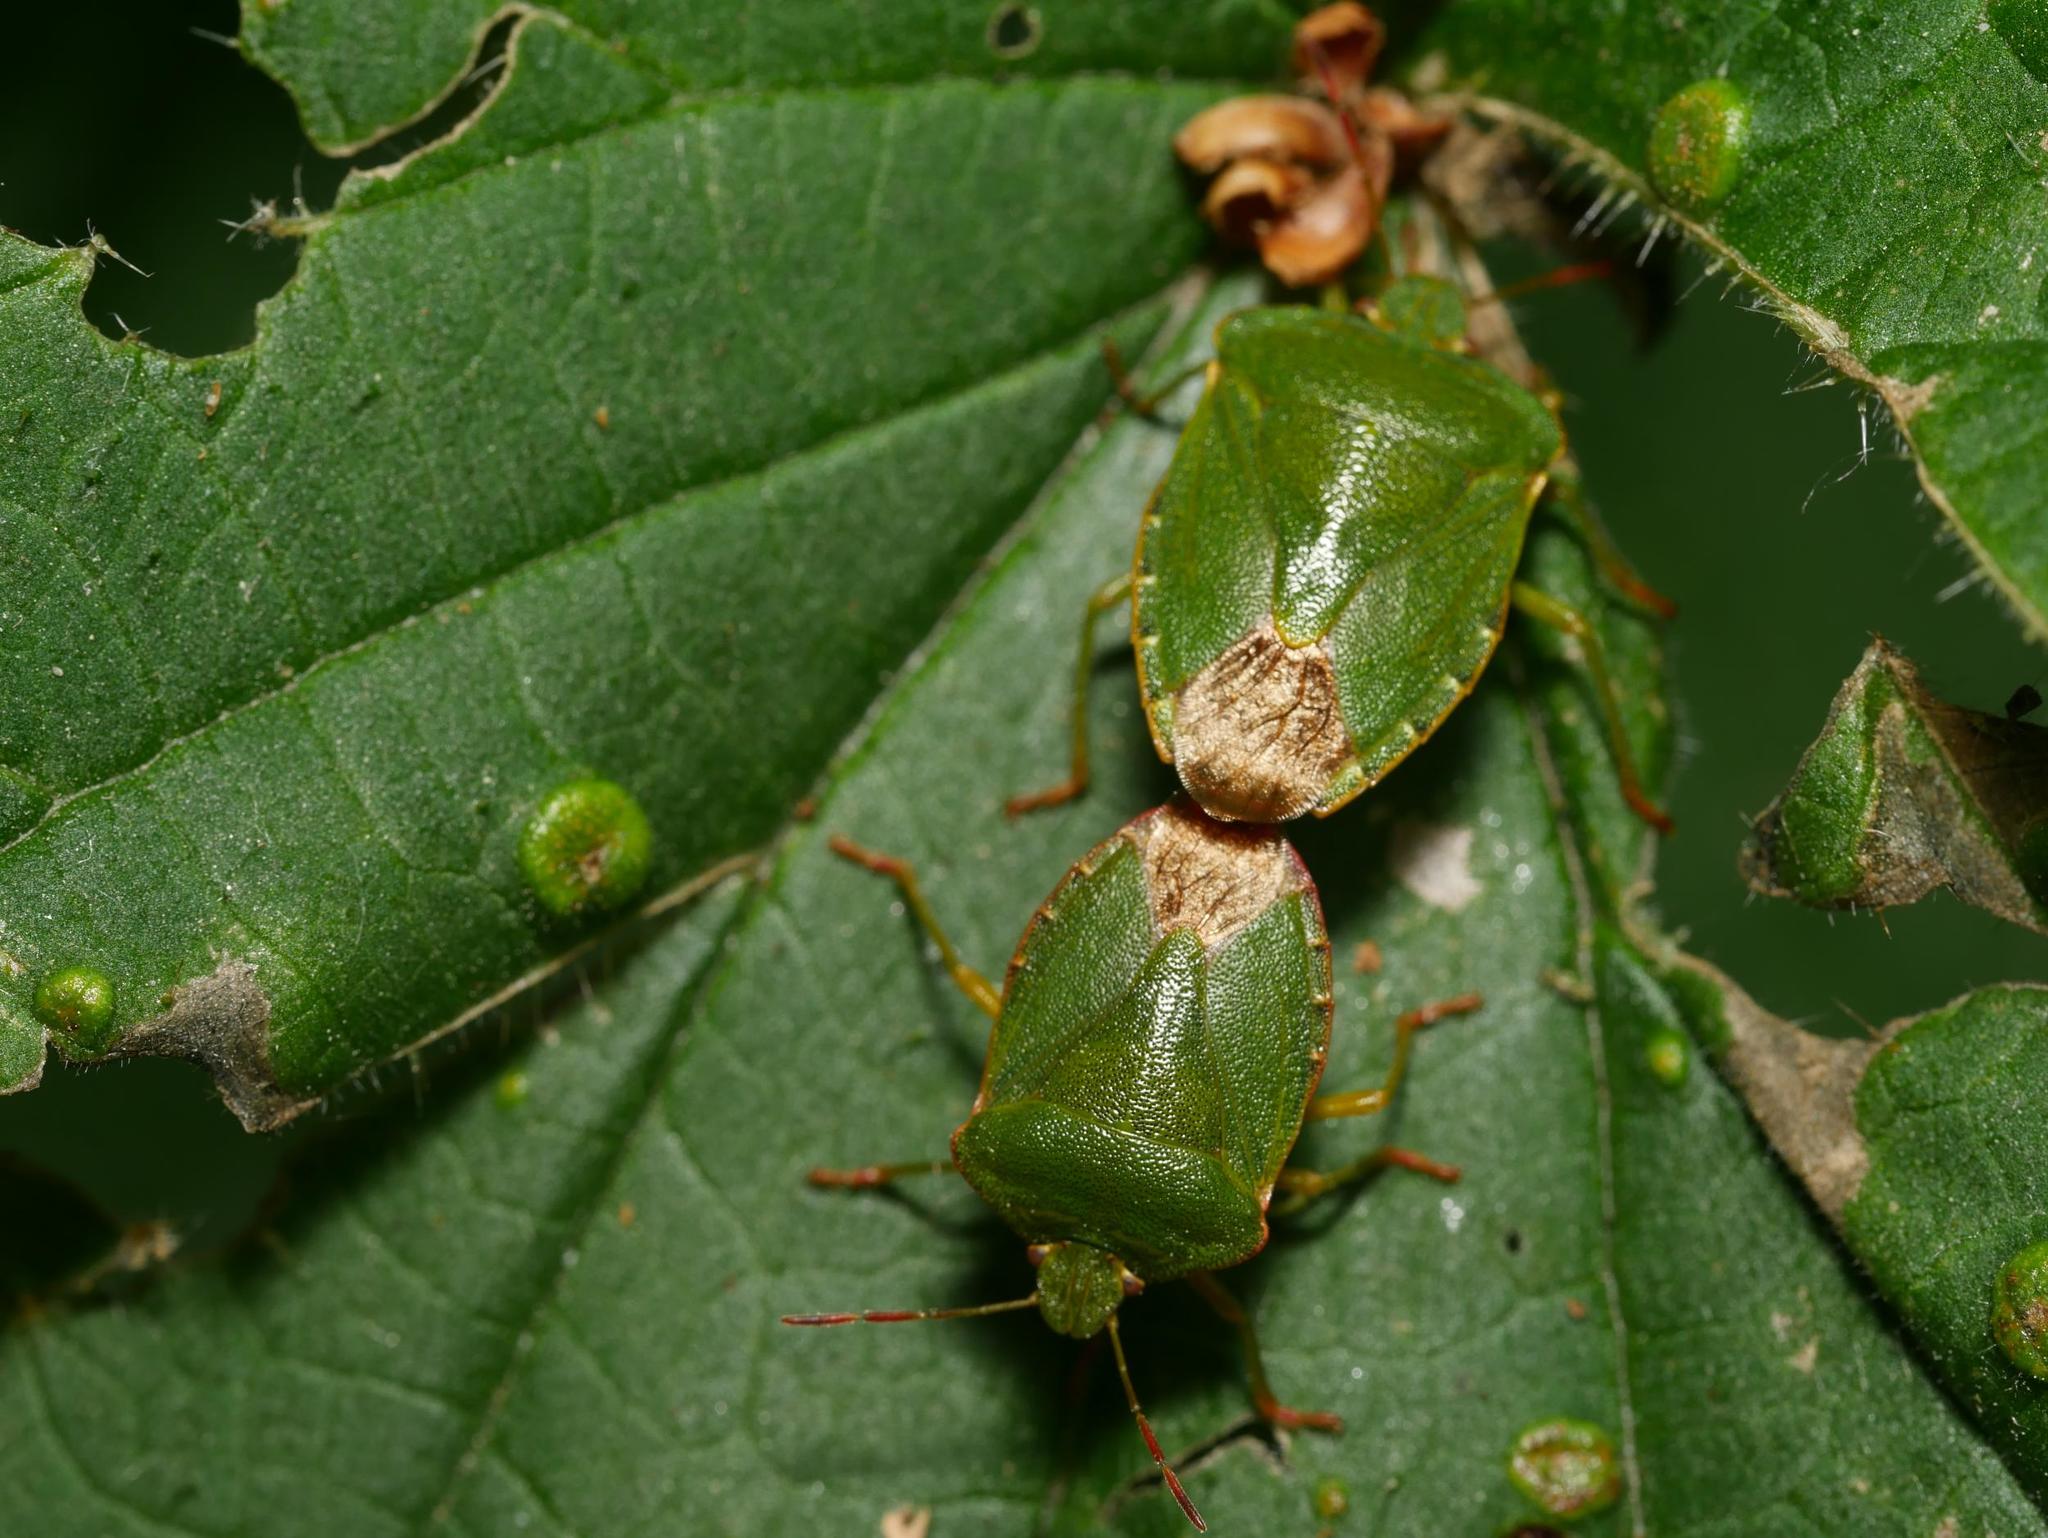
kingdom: Animalia
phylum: Arthropoda
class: Insecta
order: Hemiptera
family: Pentatomidae
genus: Palomena
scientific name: Palomena prasina
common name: Green shieldbug
